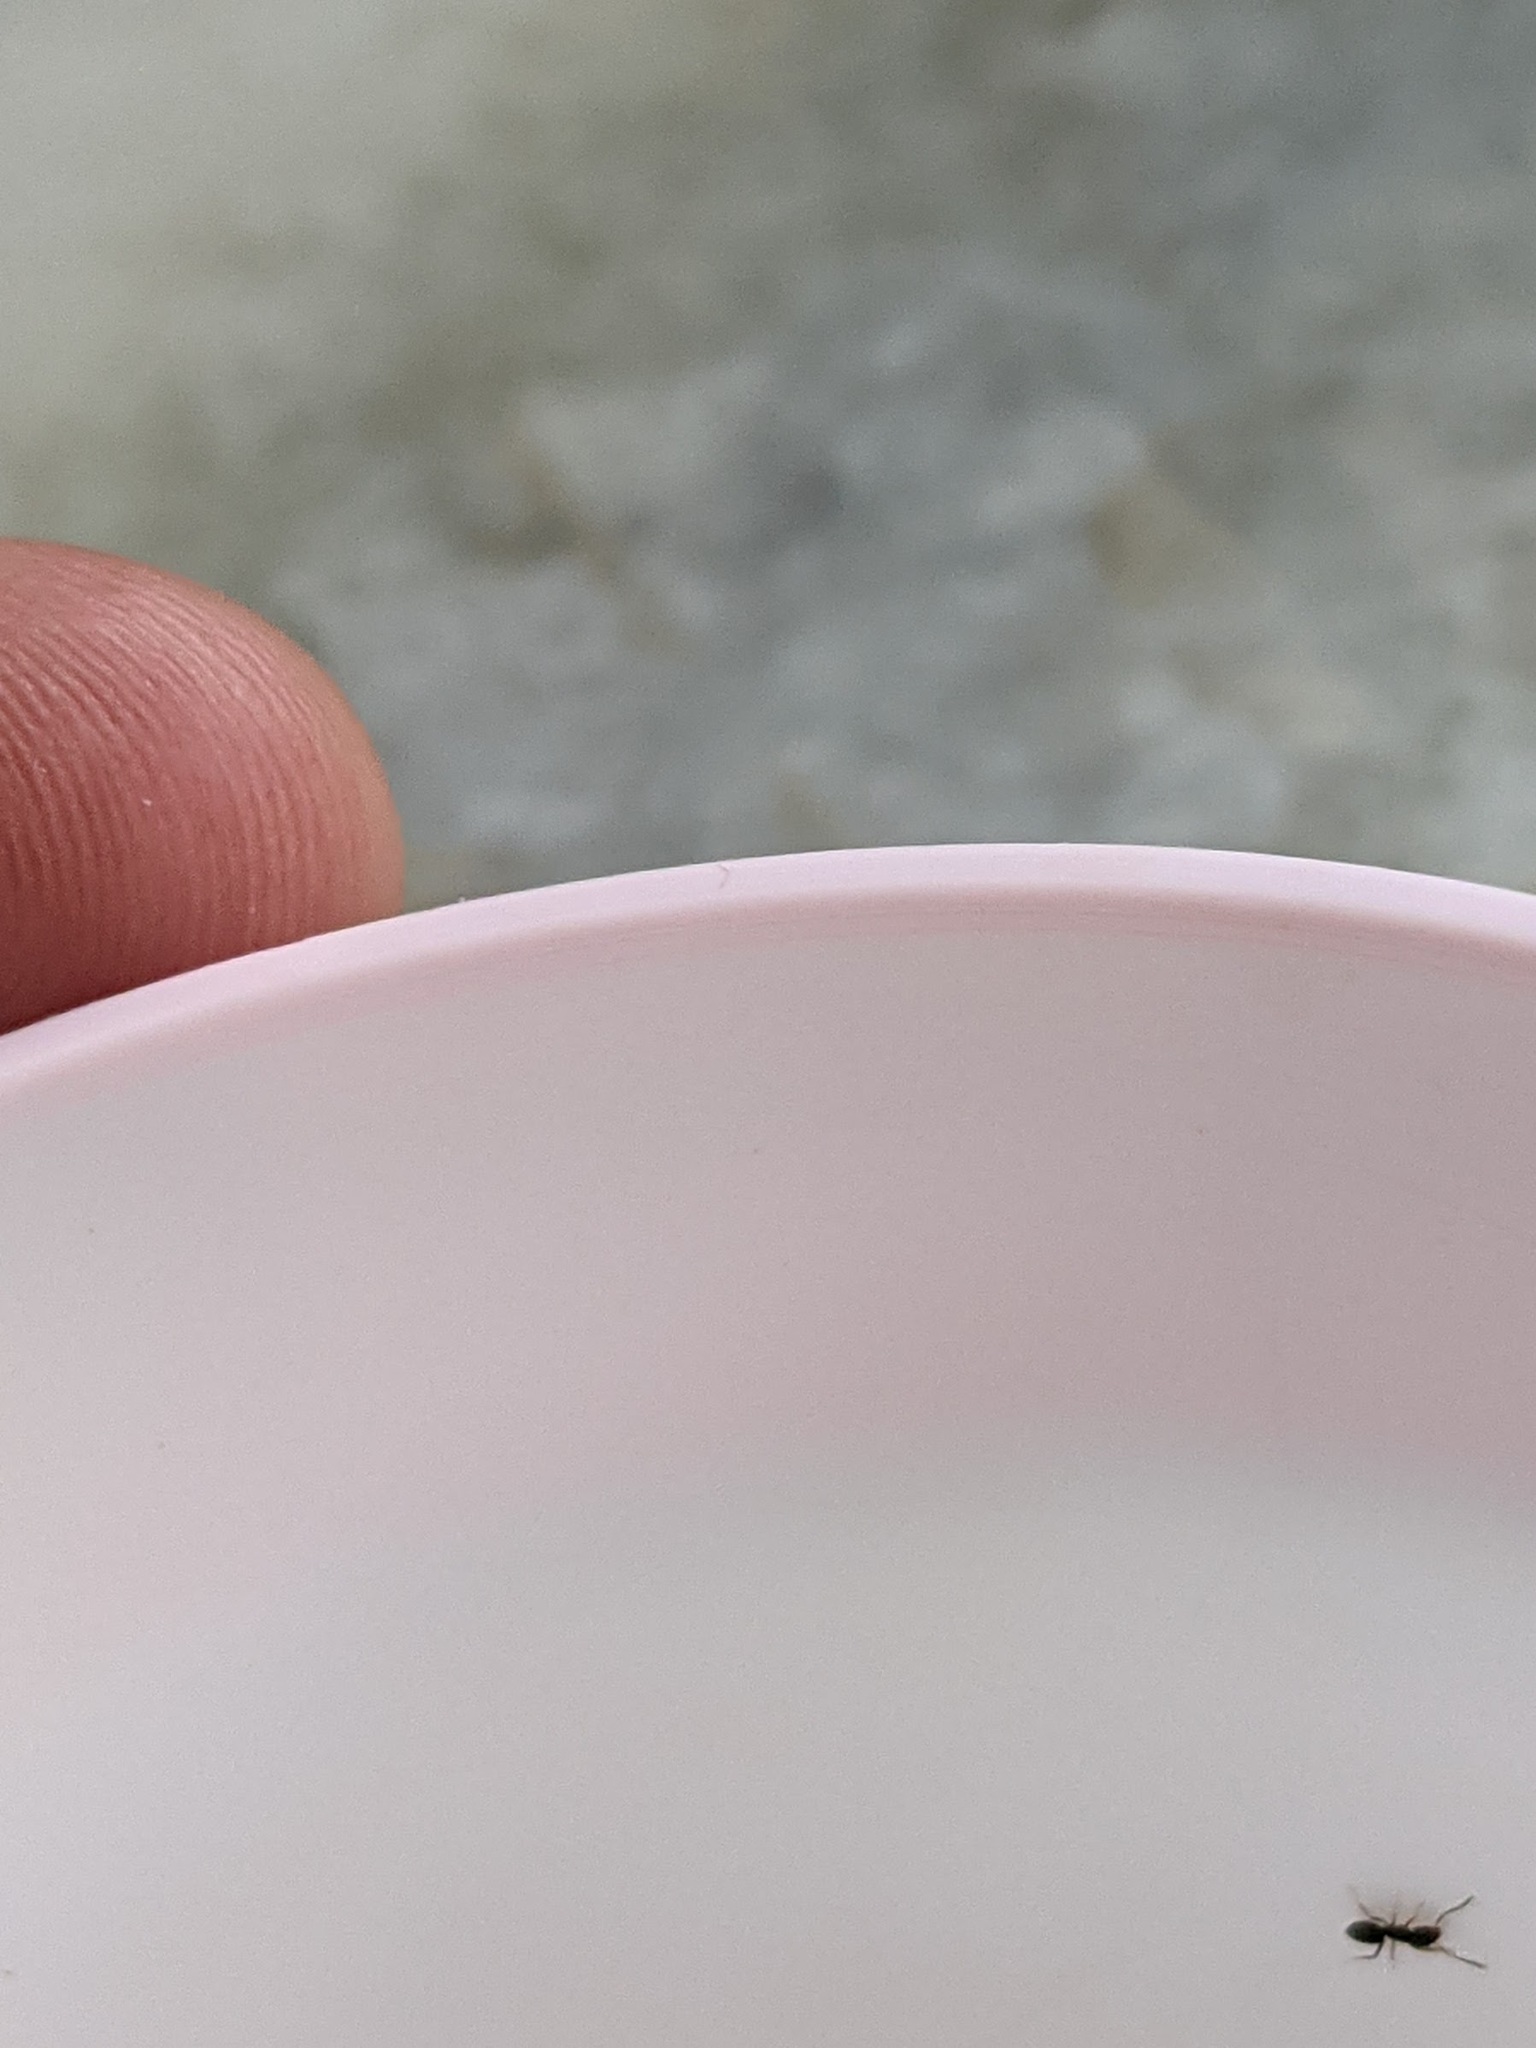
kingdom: Animalia
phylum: Arthropoda
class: Insecta
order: Hymenoptera
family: Formicidae
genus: Tapinoma
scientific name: Tapinoma sessile
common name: Odorous house ant
